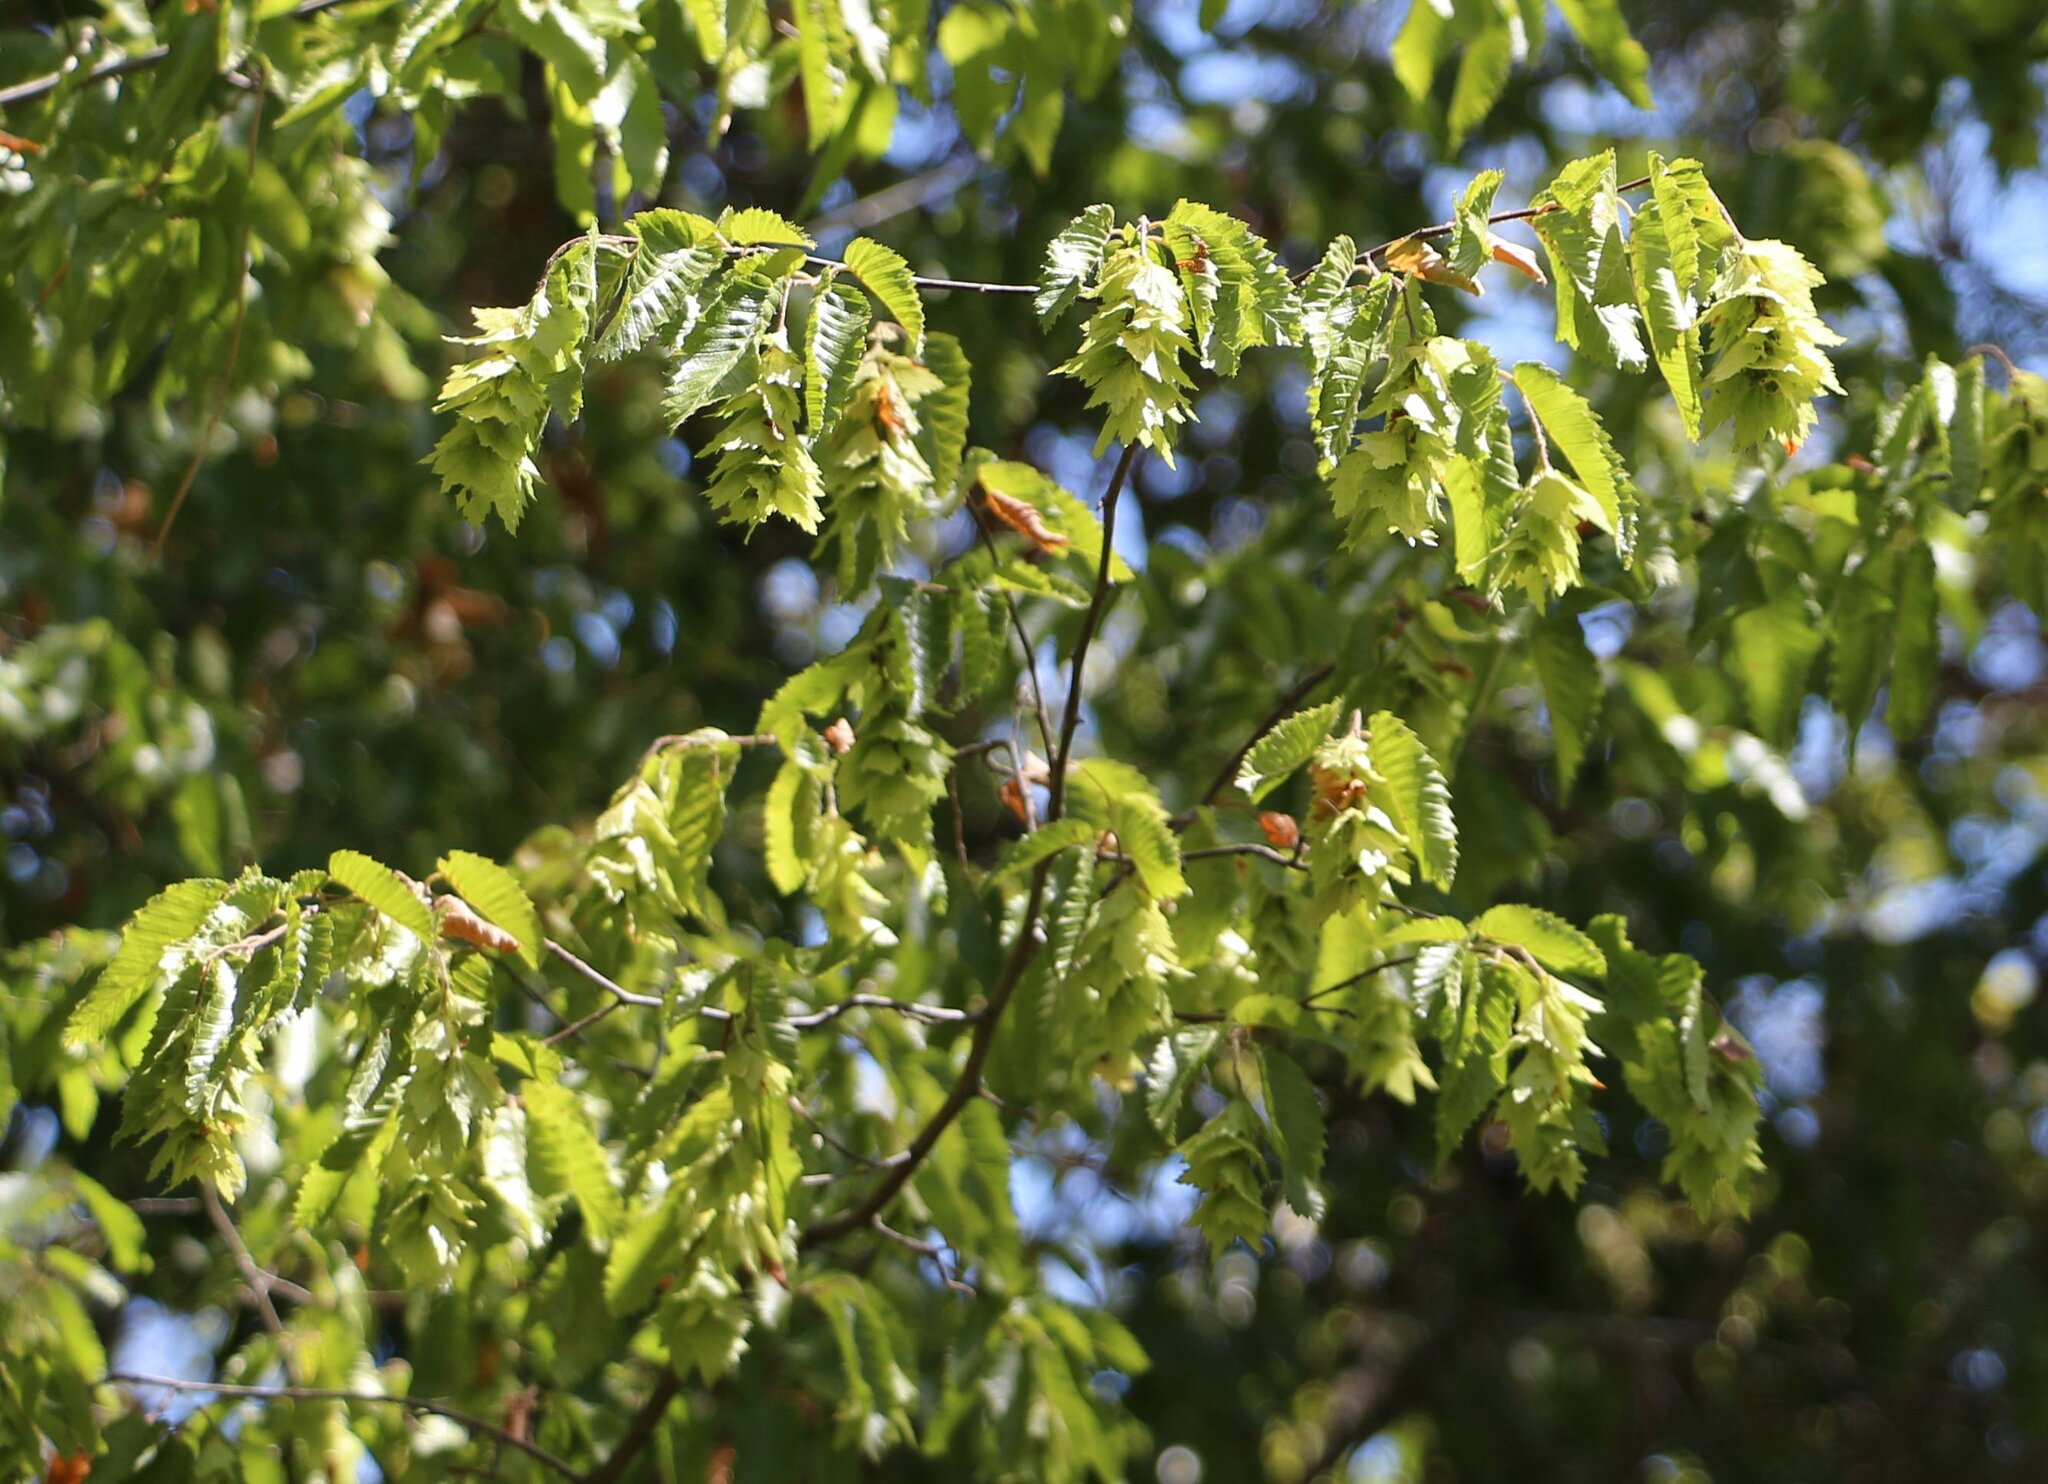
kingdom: Plantae
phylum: Tracheophyta
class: Magnoliopsida
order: Fagales
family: Betulaceae
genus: Carpinus
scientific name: Carpinus orientalis
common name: Eastern hornbeam
